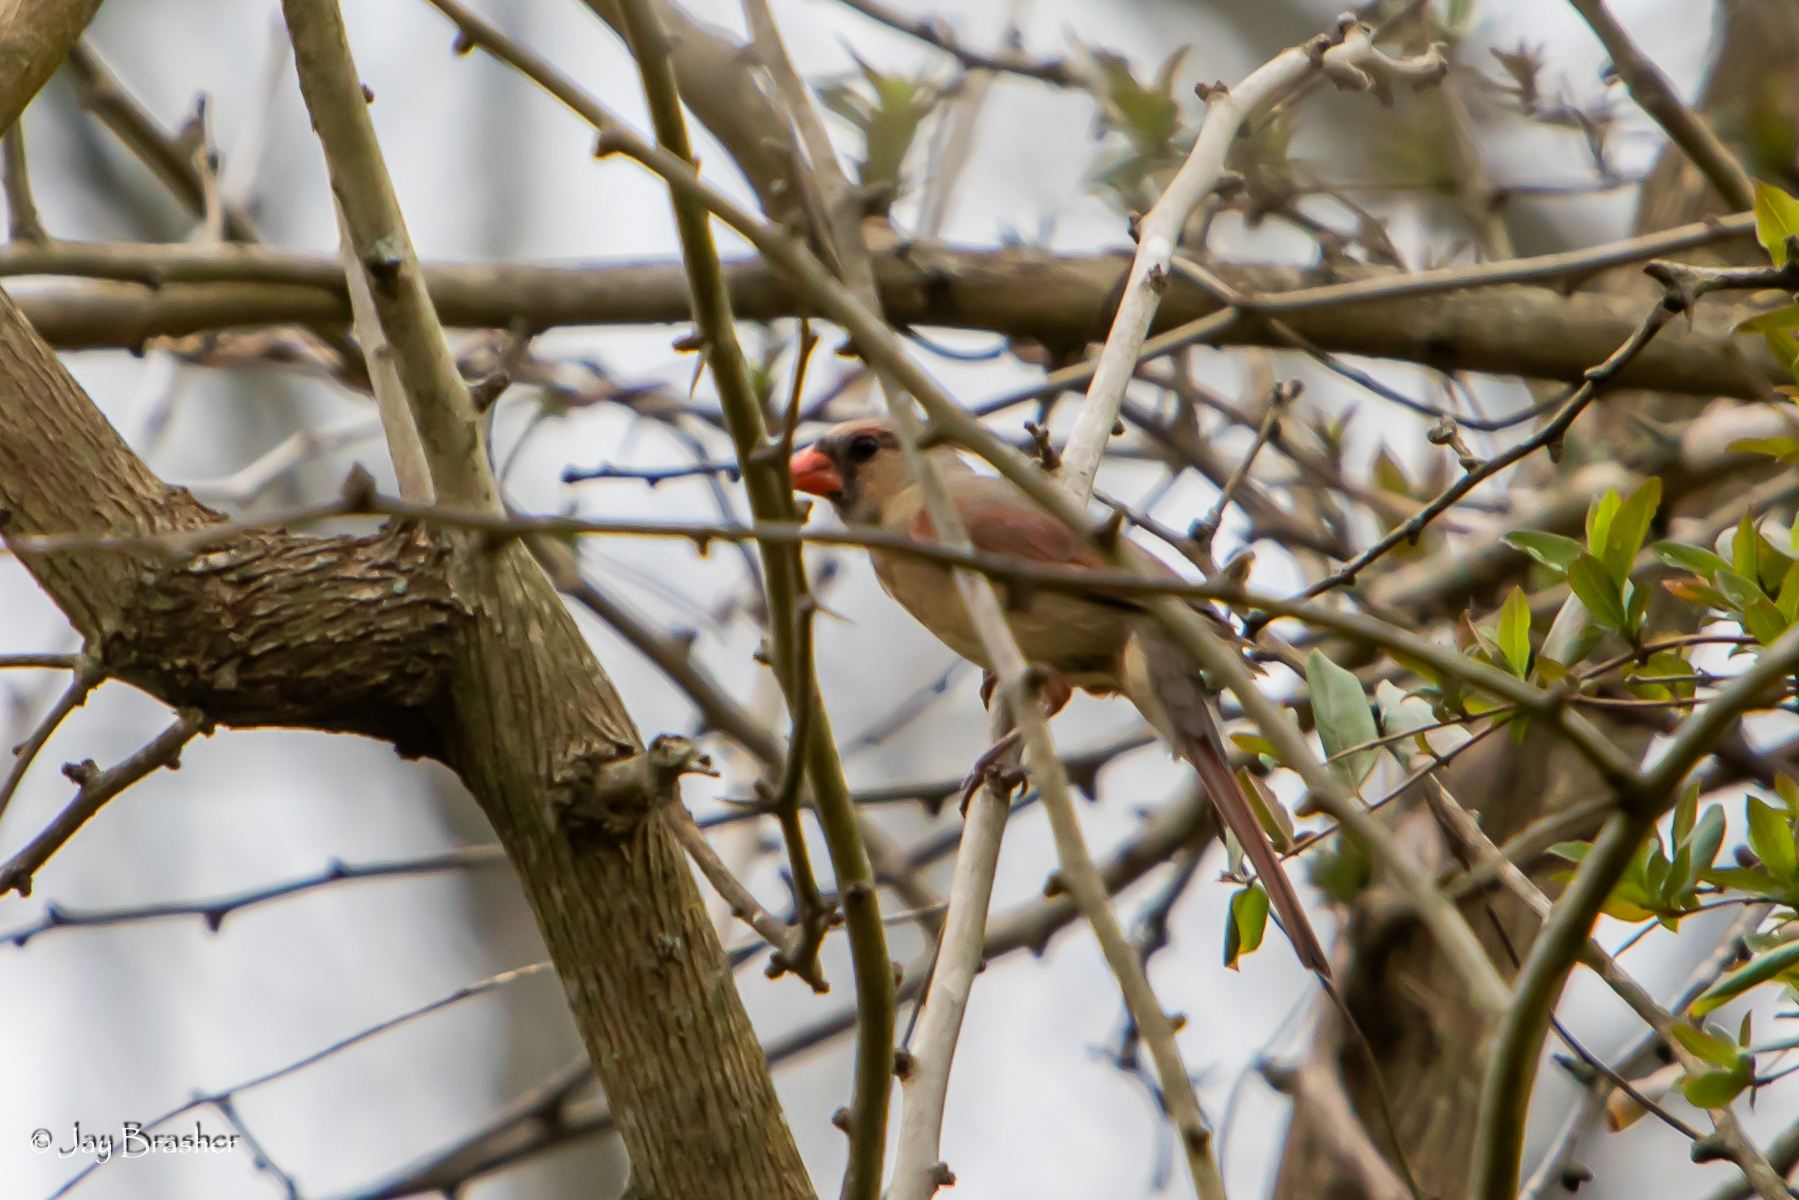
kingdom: Animalia
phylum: Chordata
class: Aves
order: Passeriformes
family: Cardinalidae
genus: Cardinalis
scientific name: Cardinalis cardinalis
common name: Northern cardinal
